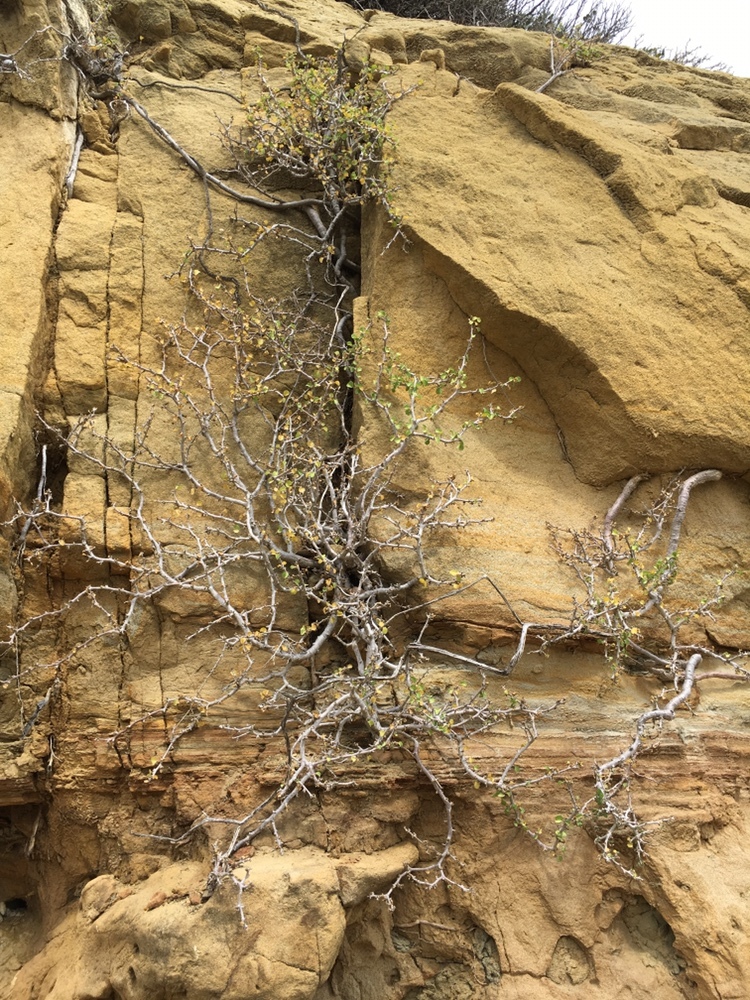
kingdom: Plantae
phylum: Tracheophyta
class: Magnoliopsida
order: Malpighiales
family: Euphorbiaceae
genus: Euphorbia
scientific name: Euphorbia misera
